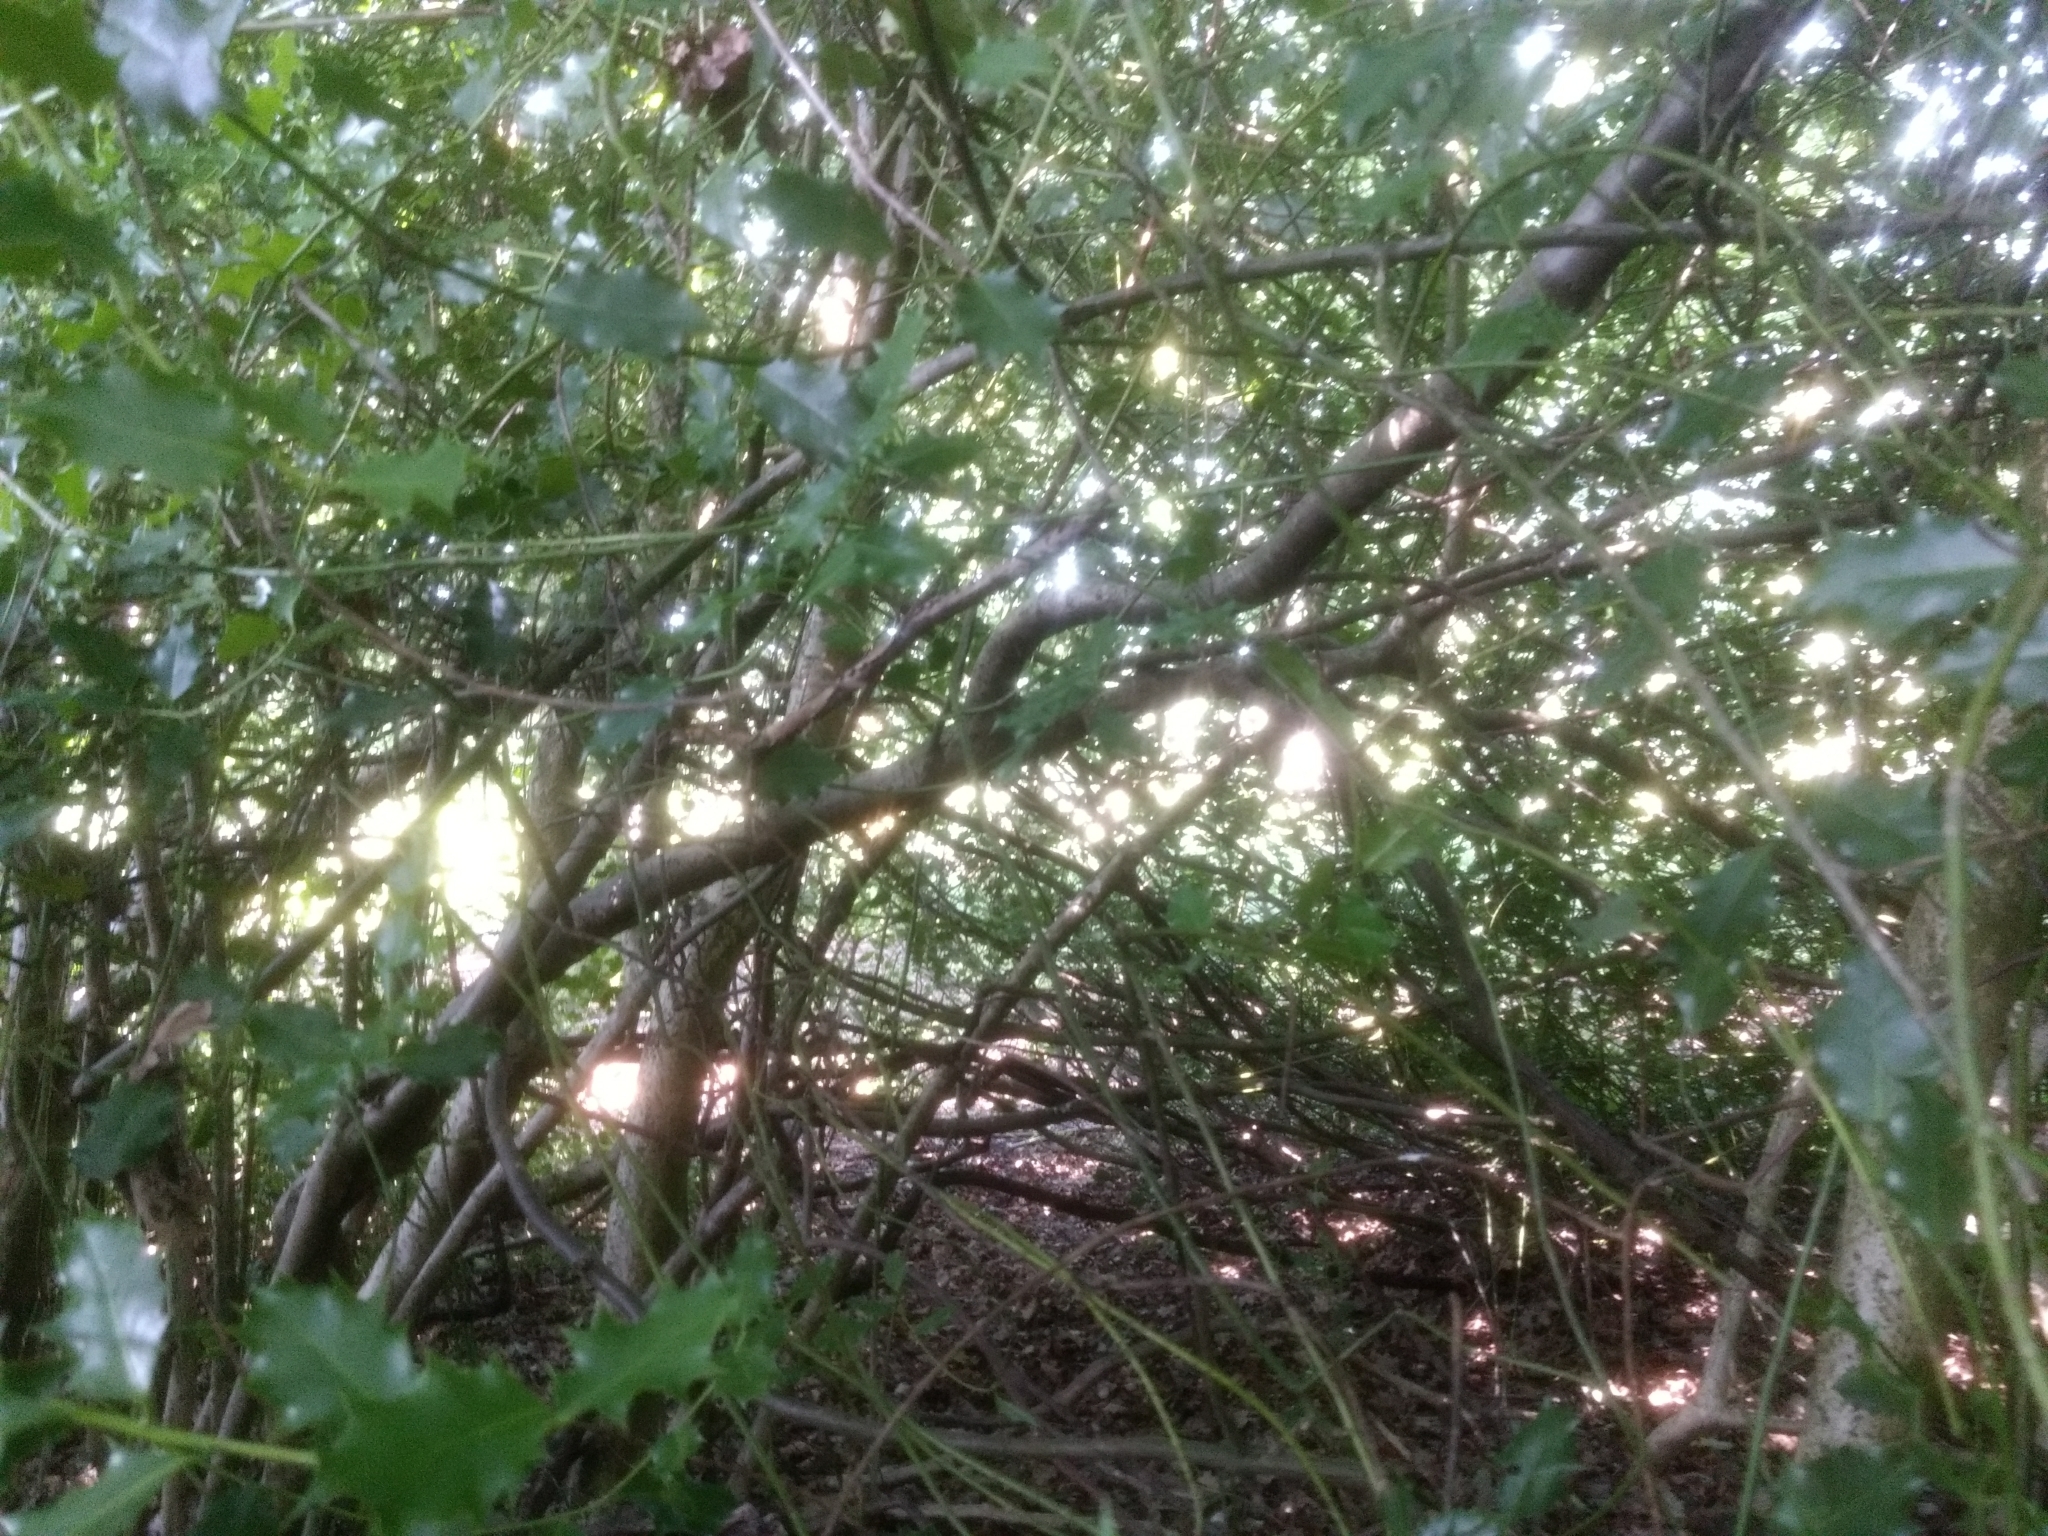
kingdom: Plantae
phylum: Tracheophyta
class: Magnoliopsida
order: Aquifoliales
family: Aquifoliaceae
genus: Ilex
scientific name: Ilex aquifolium
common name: English holly
